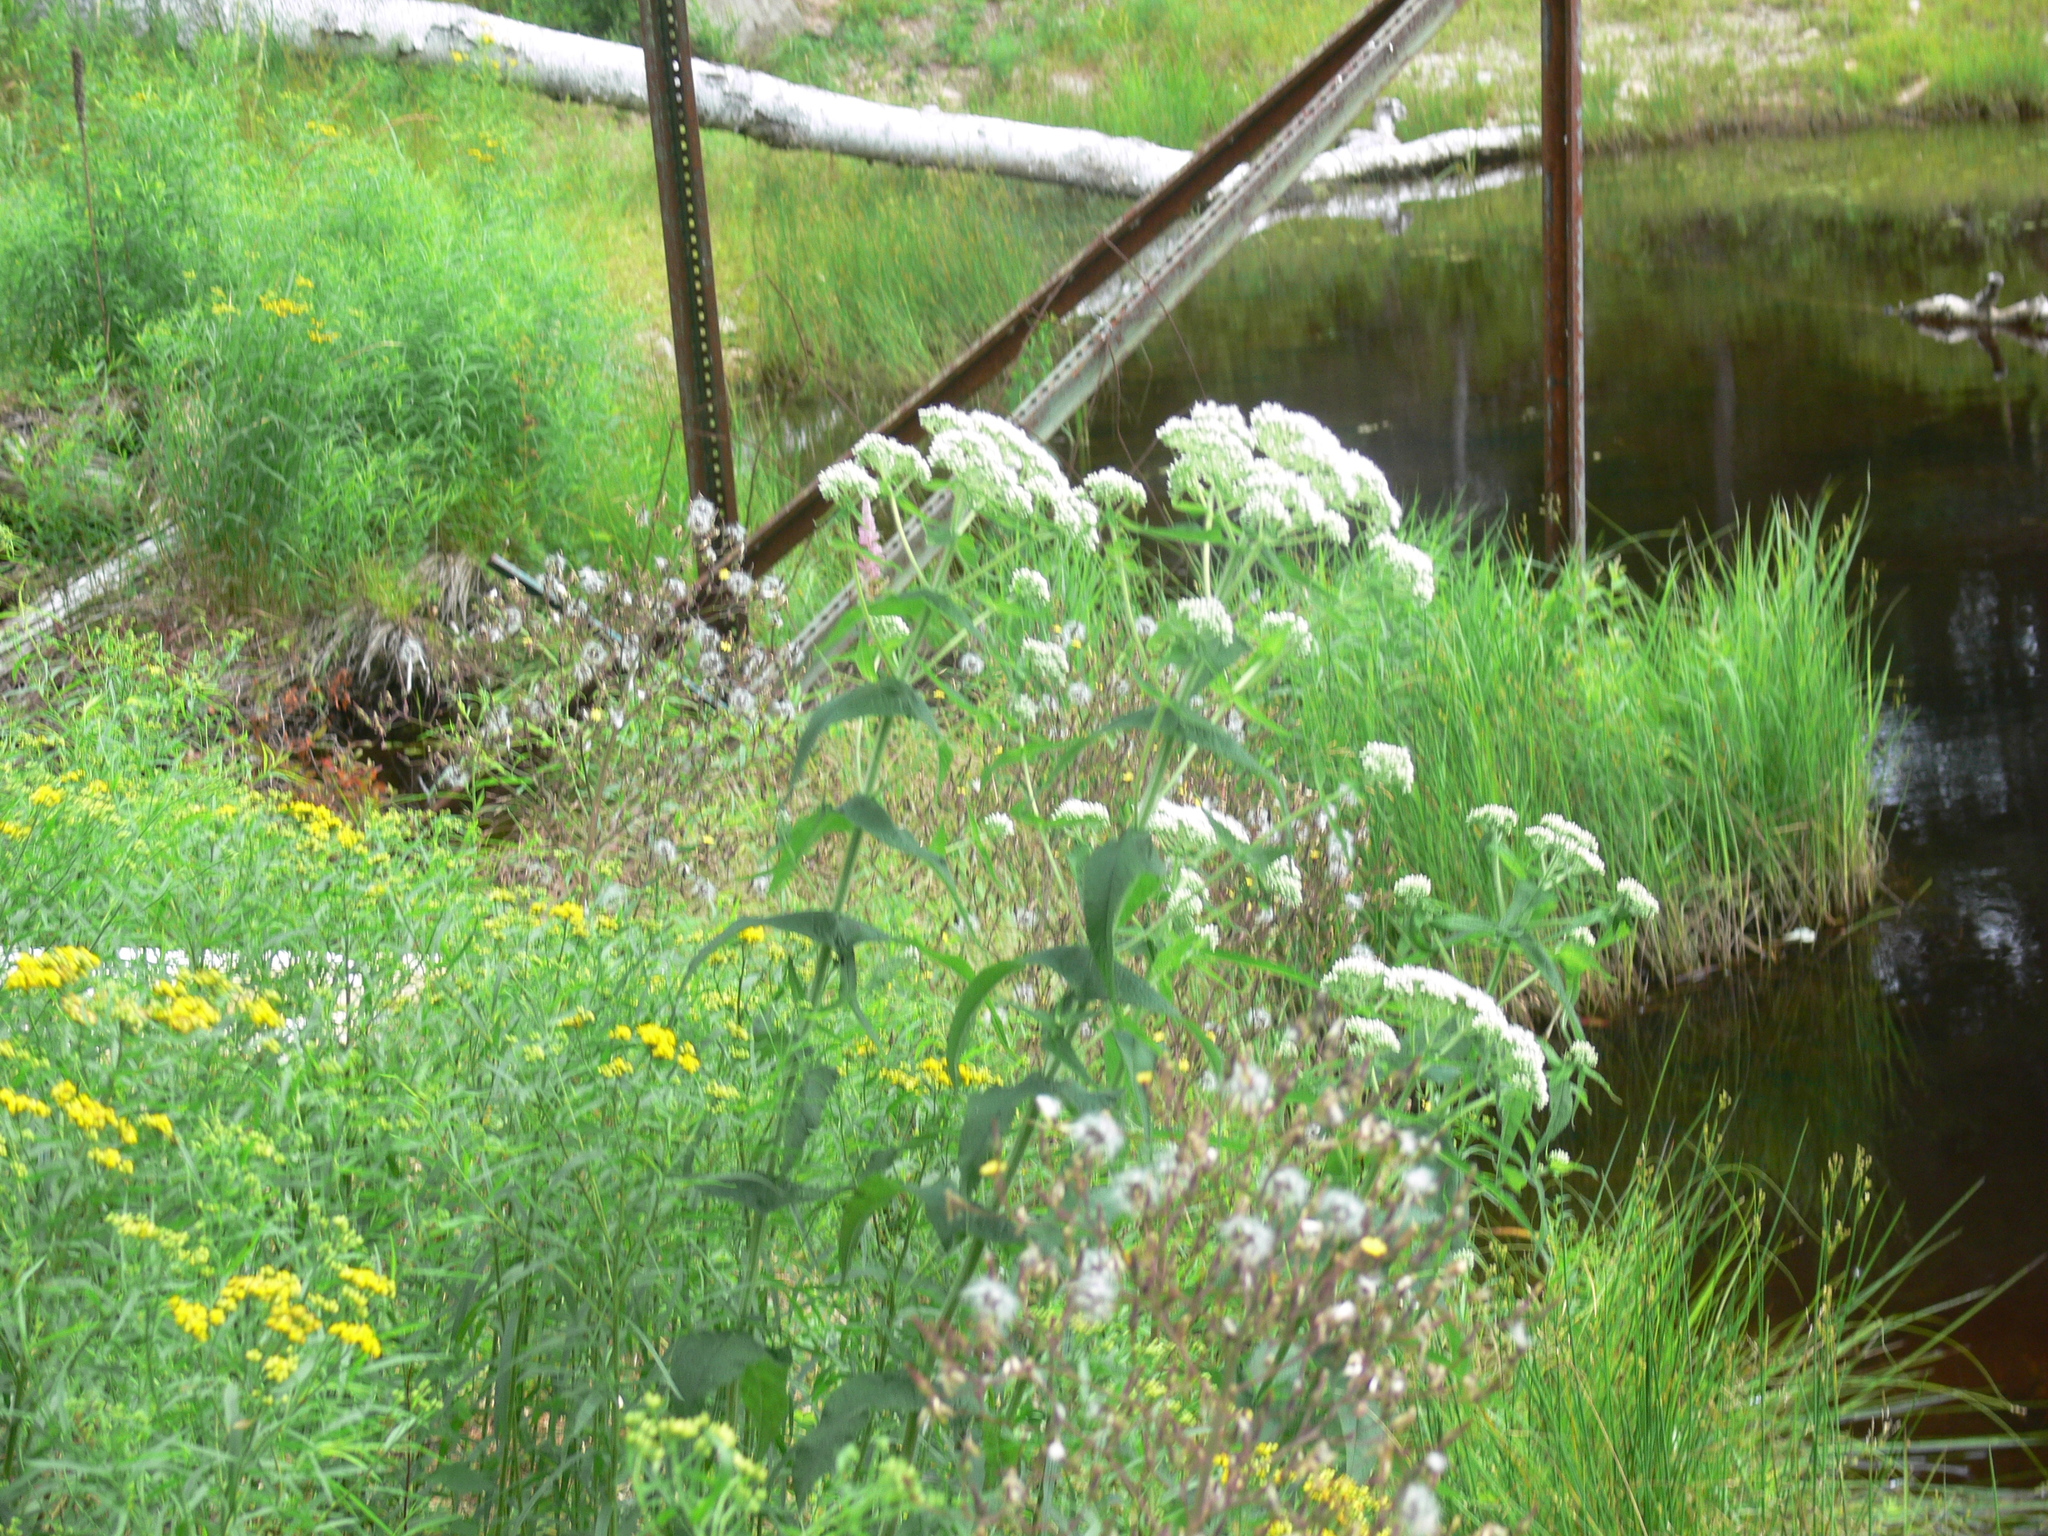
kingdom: Plantae
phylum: Tracheophyta
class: Magnoliopsida
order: Asterales
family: Asteraceae
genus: Eupatorium
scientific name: Eupatorium perfoliatum
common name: Boneset
